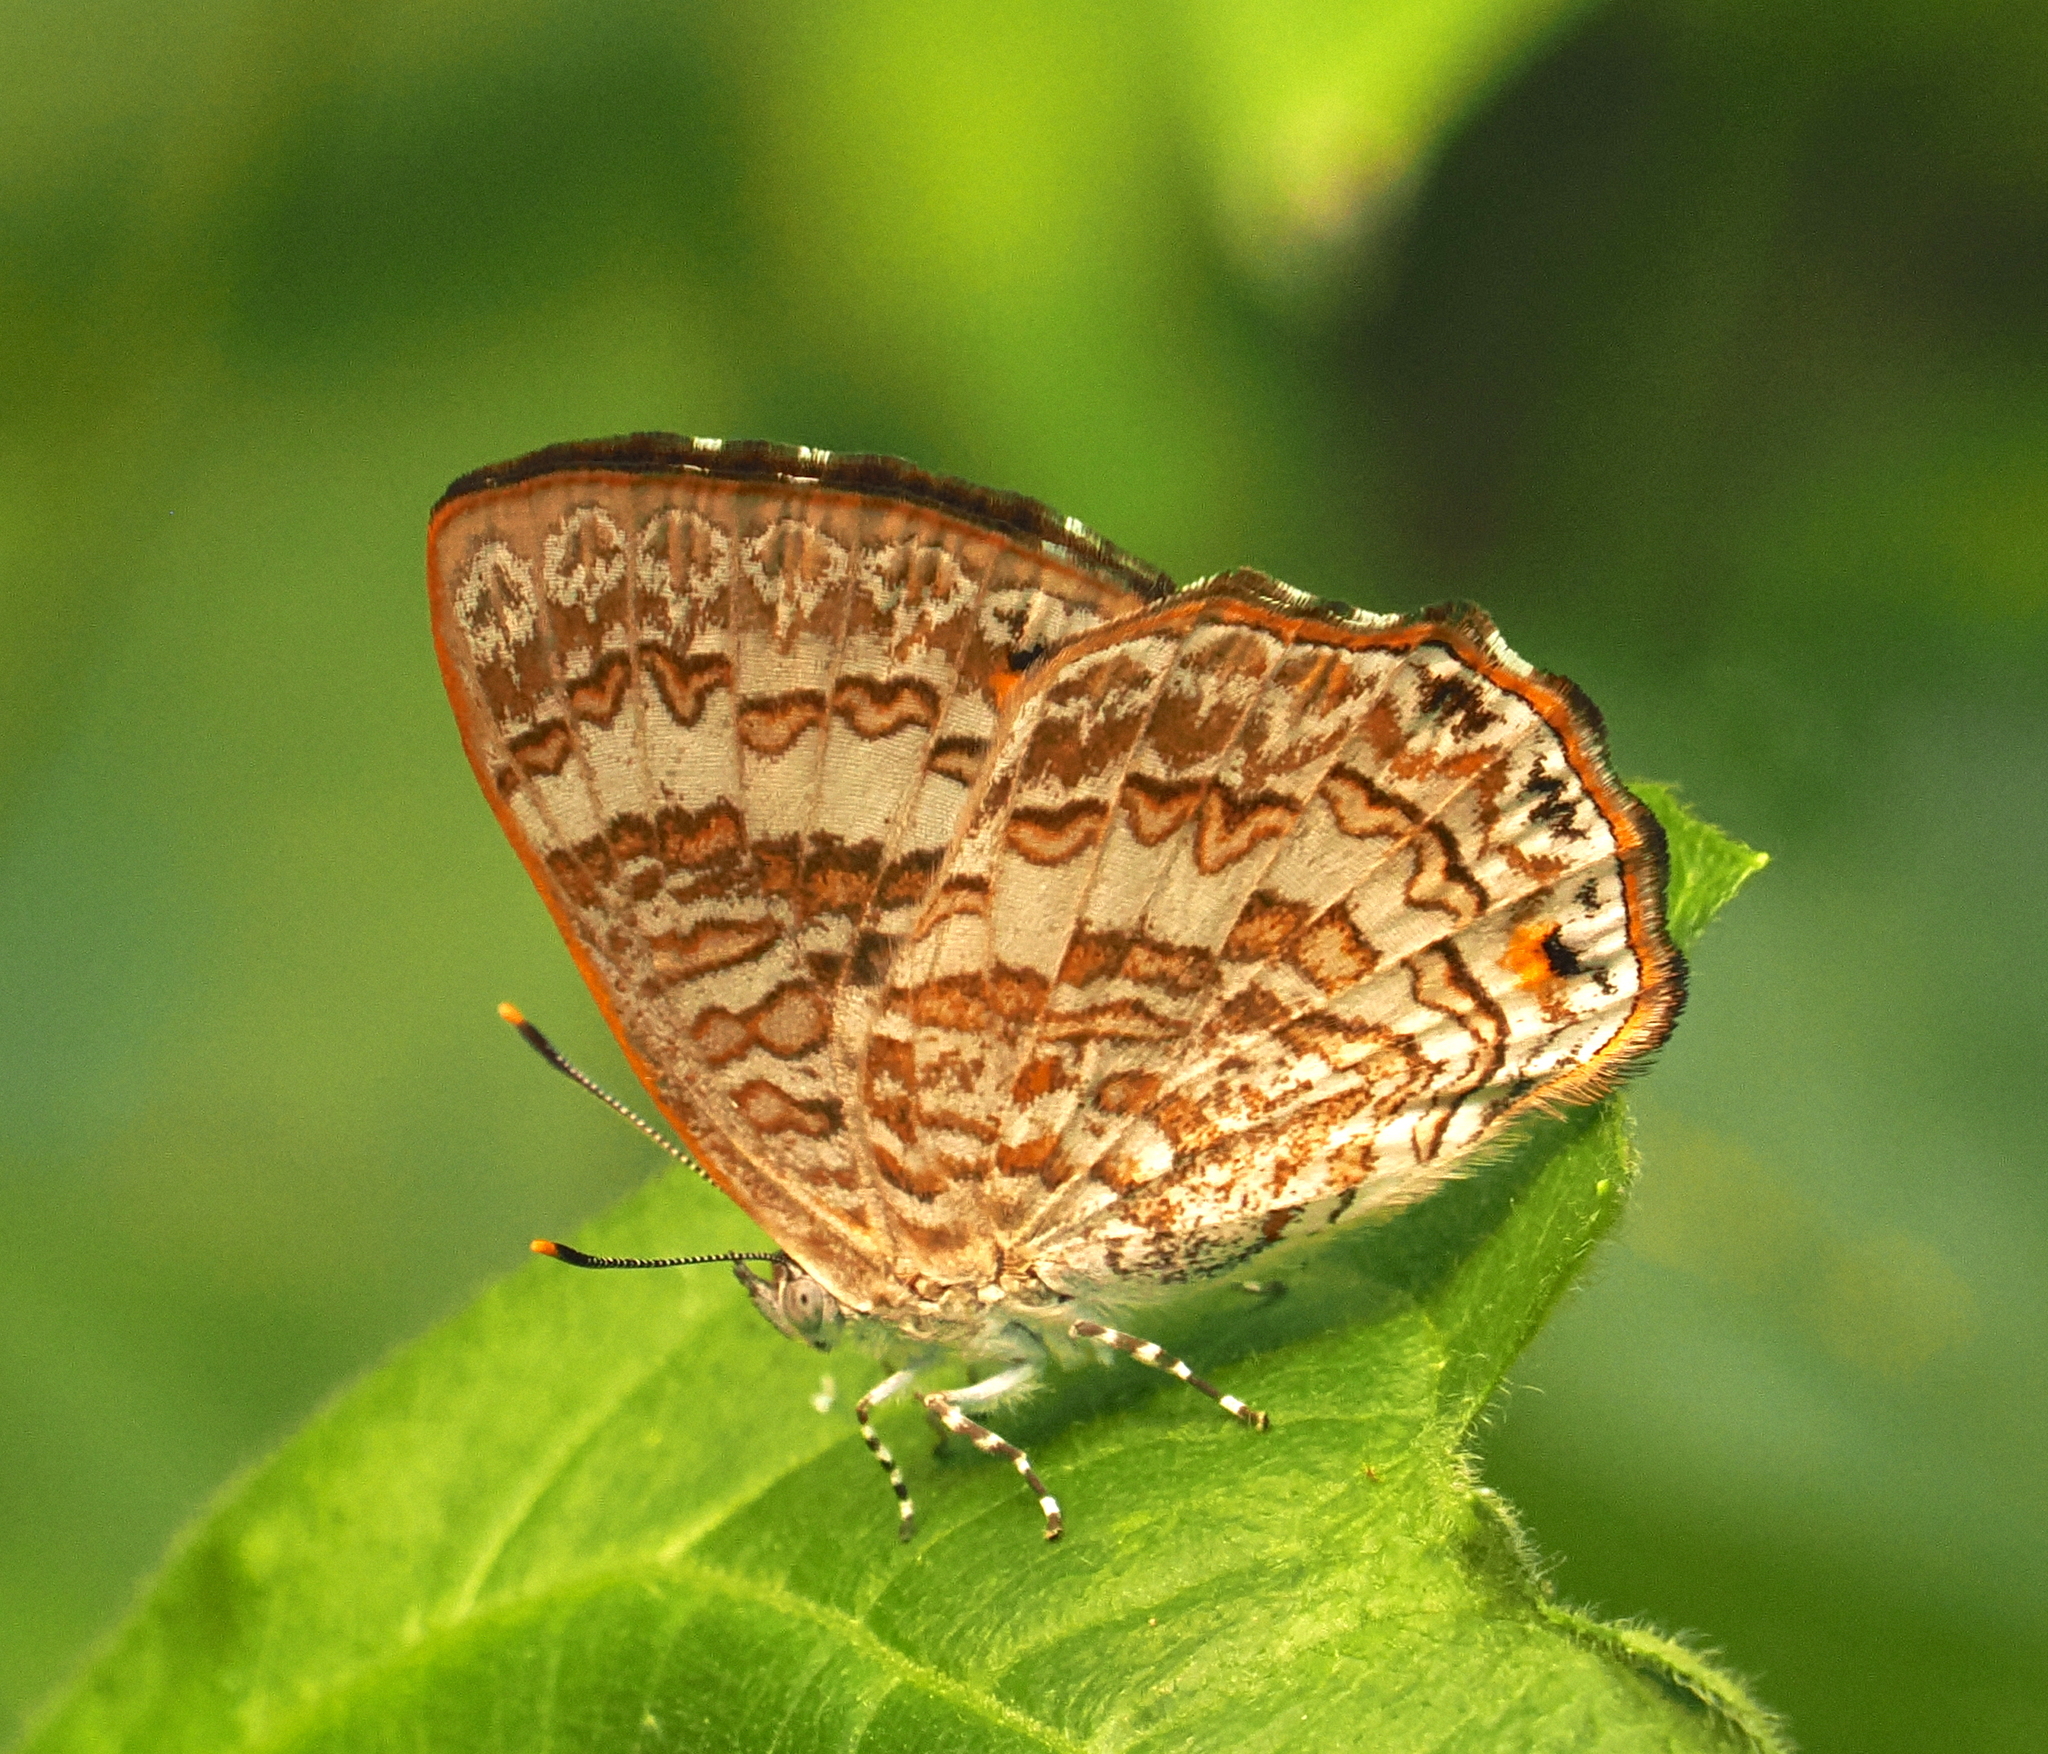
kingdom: Animalia
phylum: Arthropoda
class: Insecta
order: Lepidoptera
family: Lycaenidae
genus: Poritia
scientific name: Poritia erycinoides
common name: Blue gem
